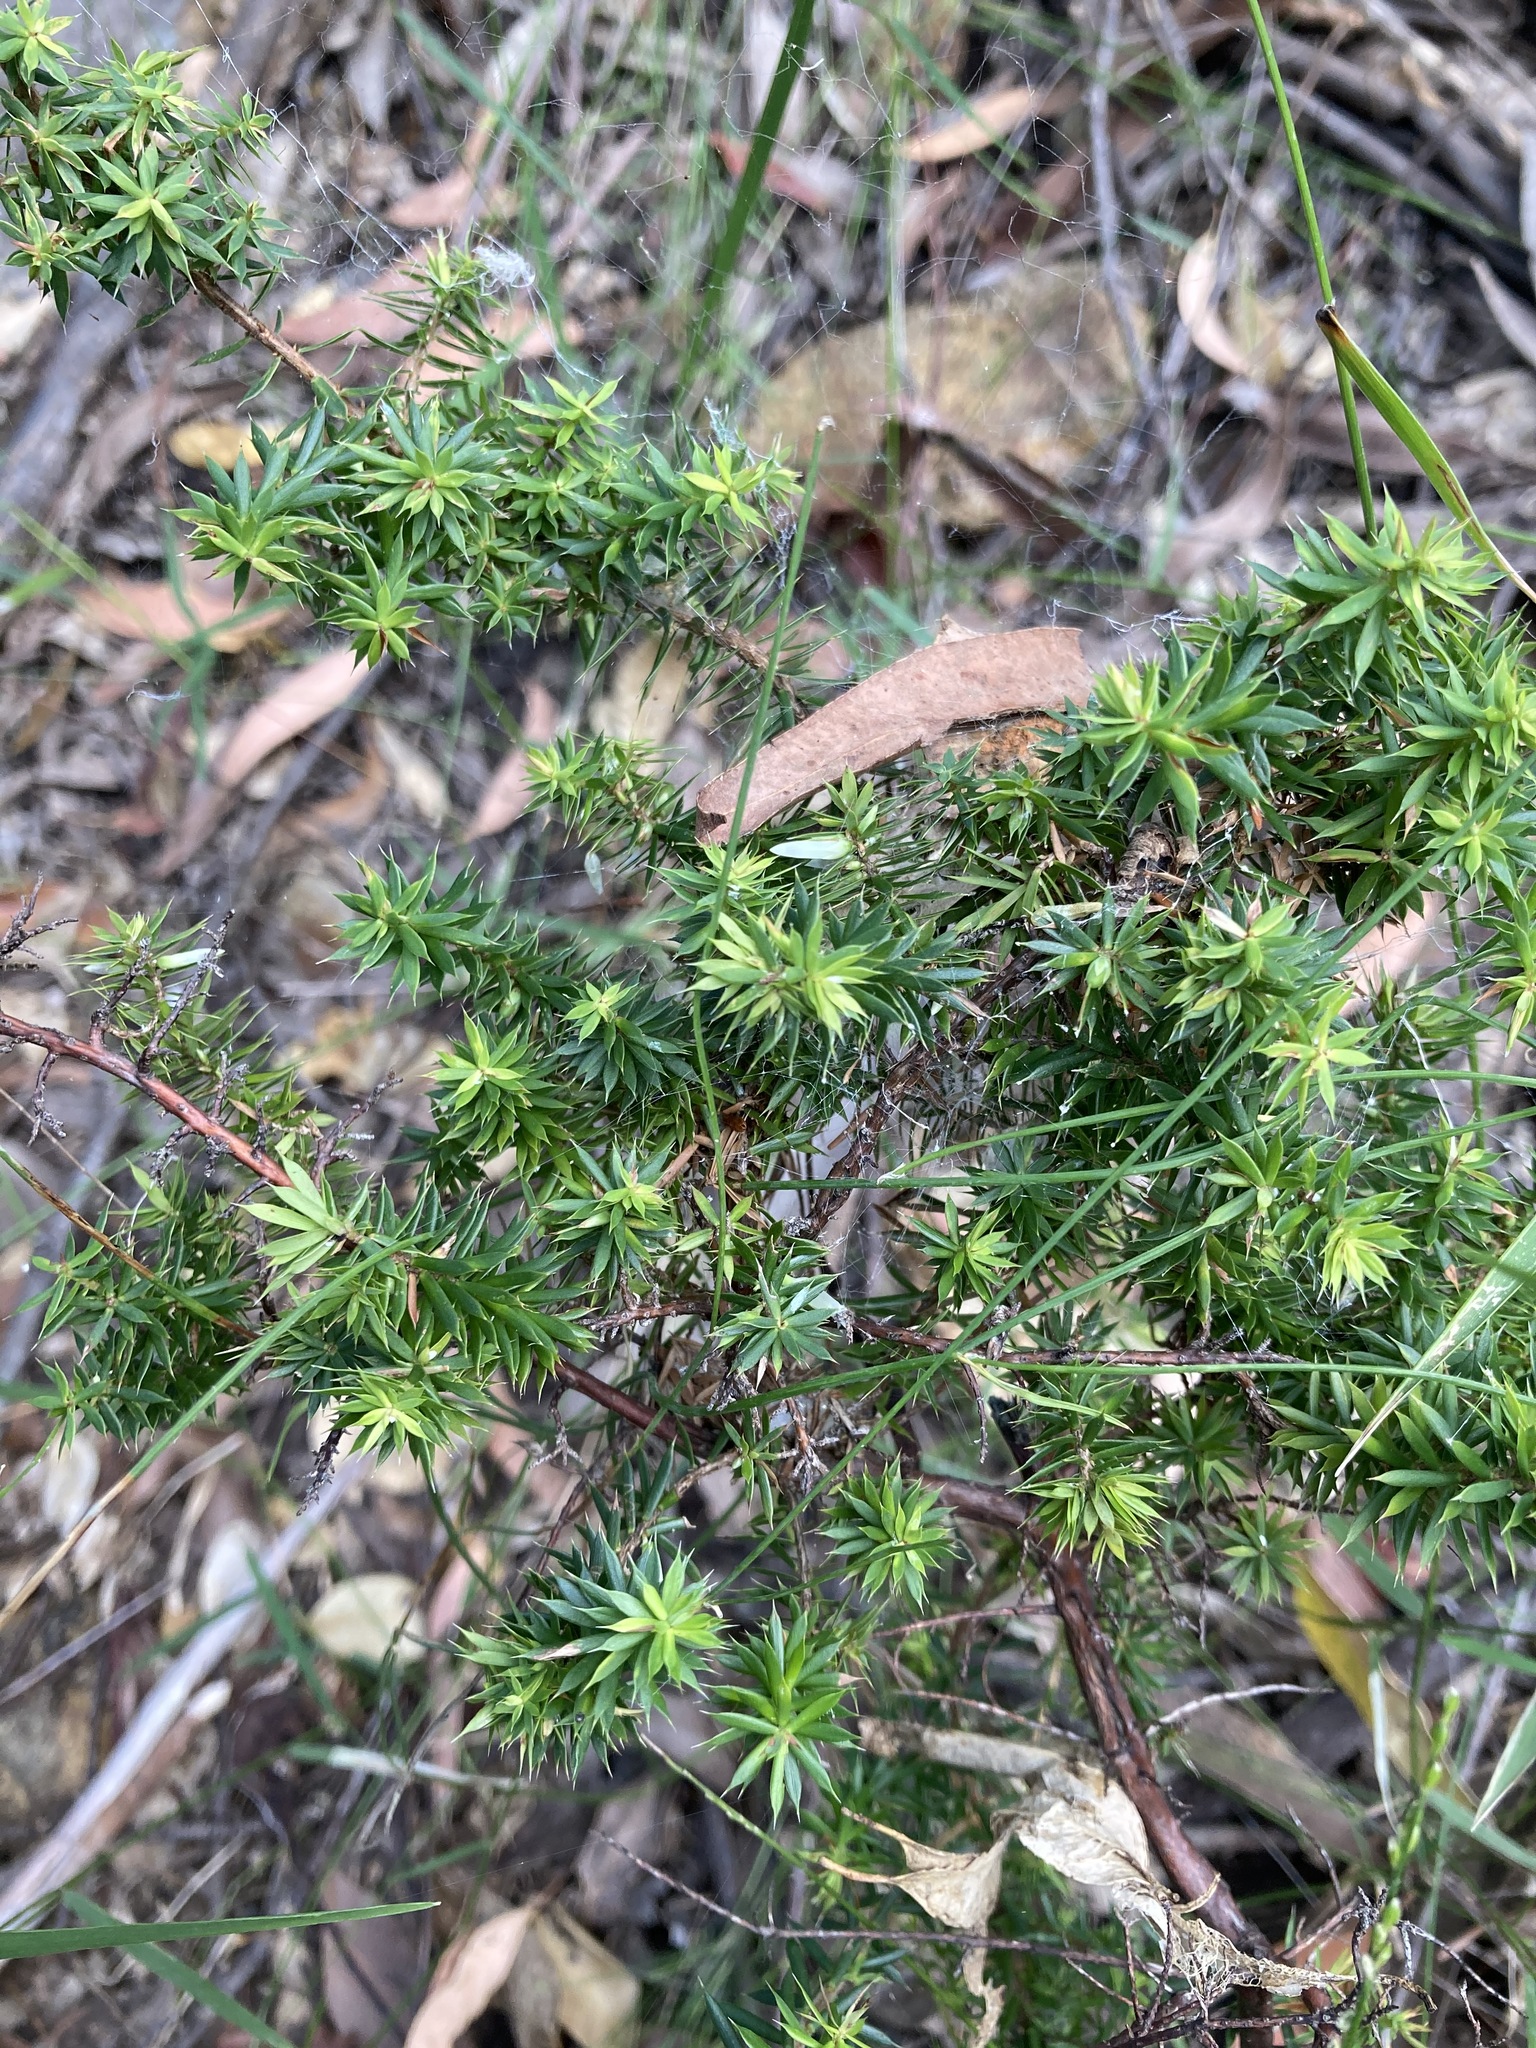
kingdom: Plantae
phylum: Tracheophyta
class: Magnoliopsida
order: Ericales
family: Ericaceae
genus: Styphelia
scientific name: Styphelia sieberi
